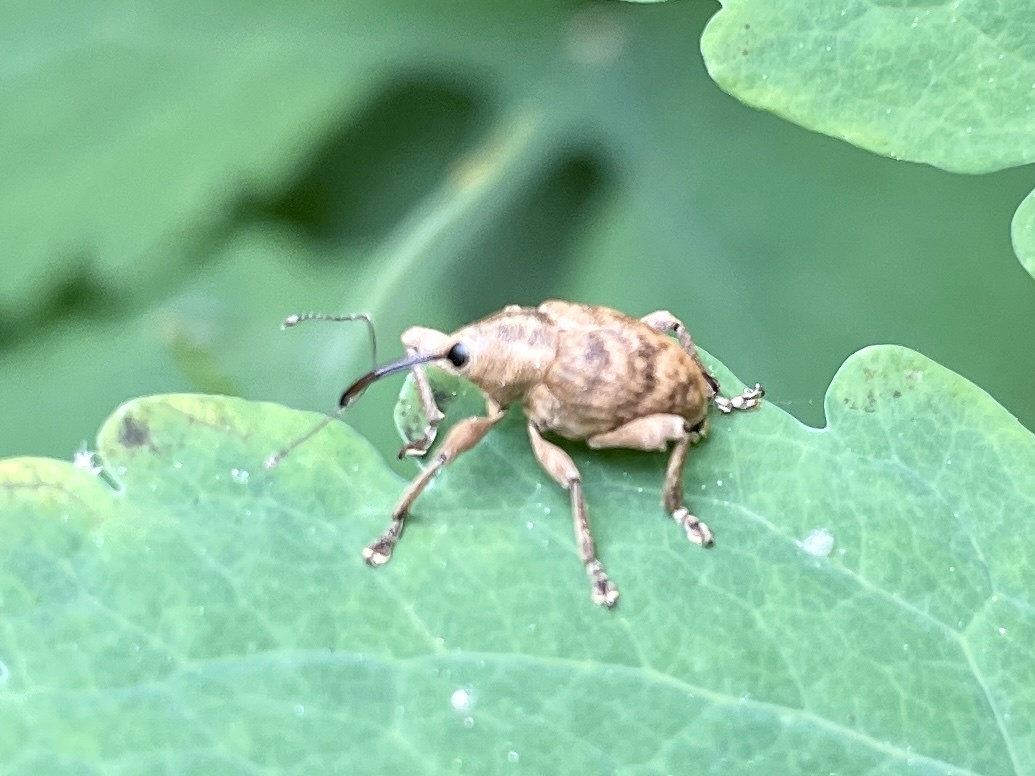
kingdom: Animalia
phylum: Arthropoda
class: Insecta
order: Coleoptera
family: Curculionidae
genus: Curculio
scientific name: Curculio venosus
